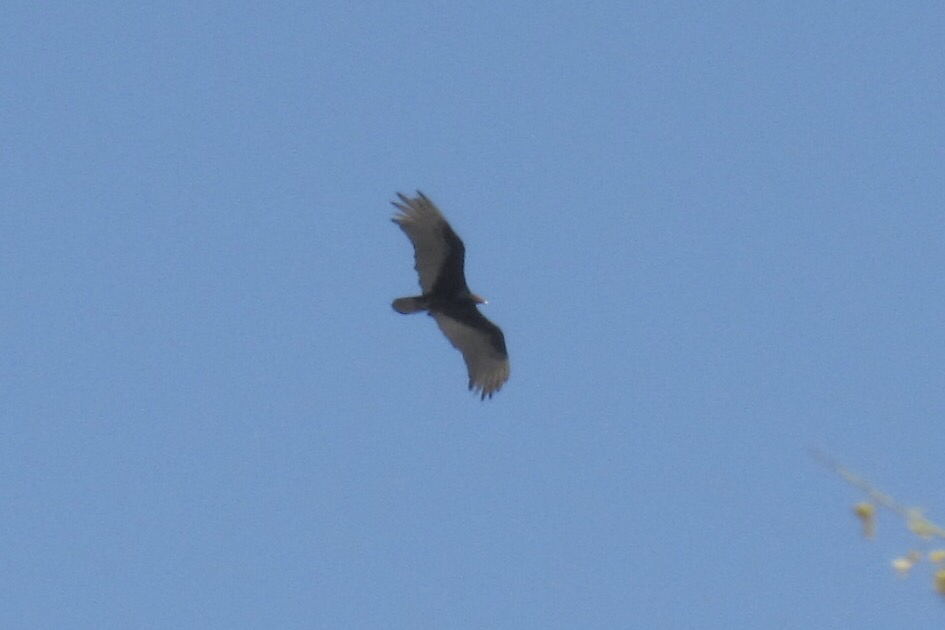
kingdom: Animalia
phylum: Chordata
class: Aves
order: Accipitriformes
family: Cathartidae
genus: Cathartes
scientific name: Cathartes aura
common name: Turkey vulture
